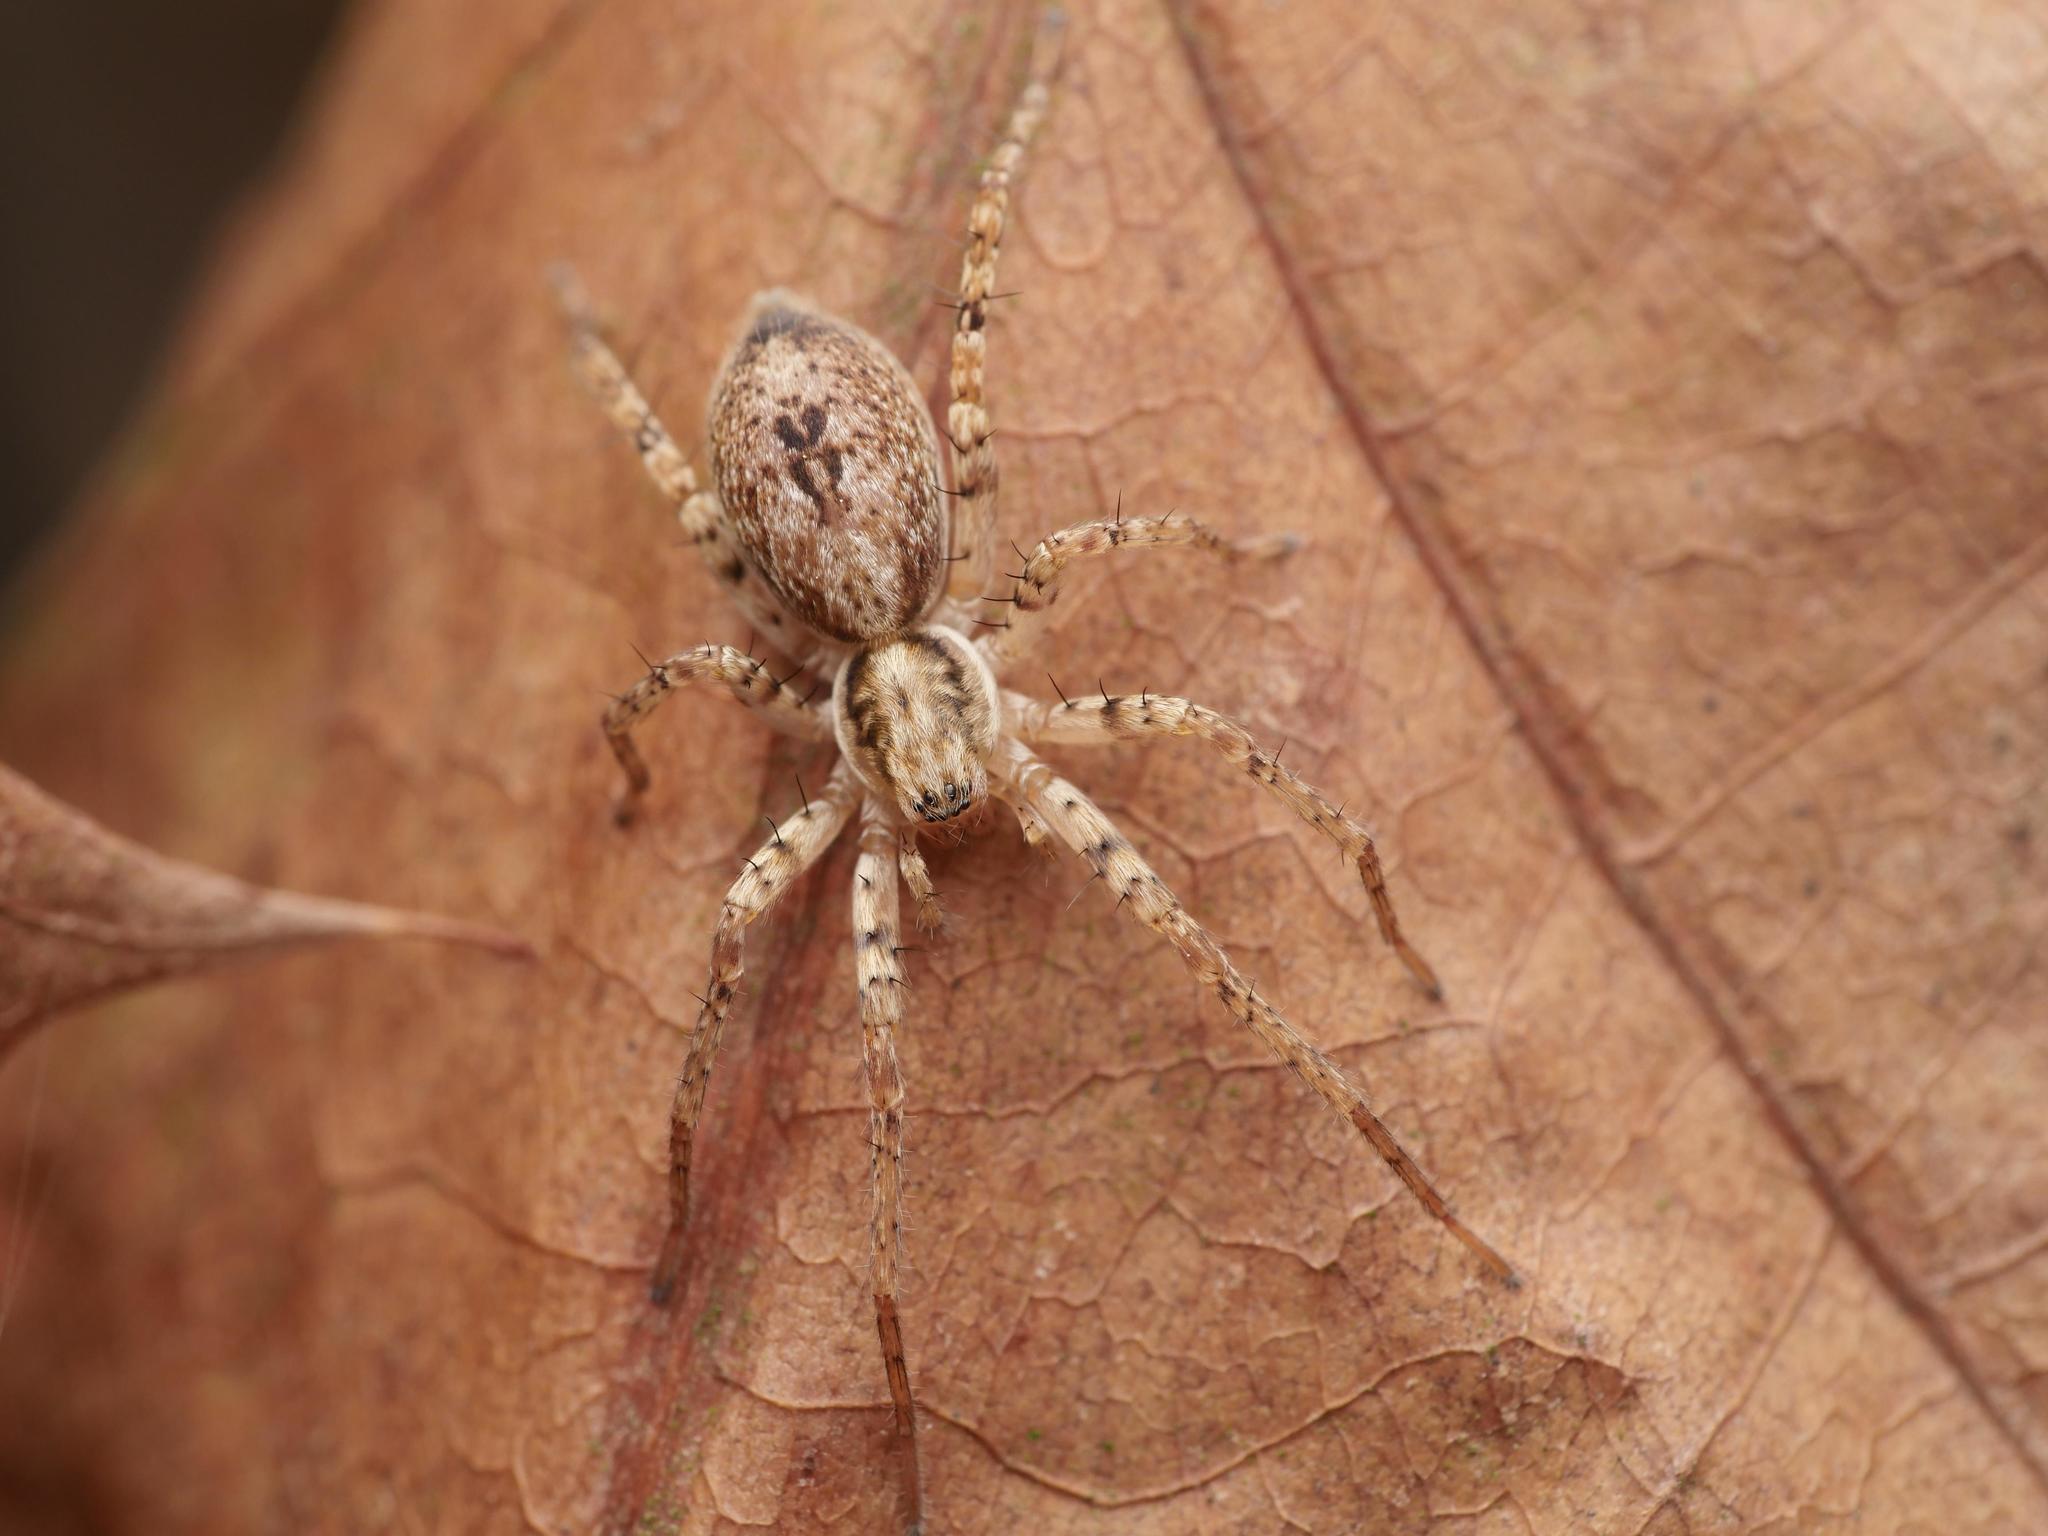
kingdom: Animalia
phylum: Arthropoda
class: Arachnida
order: Araneae
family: Anyphaenidae
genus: Anyphaena
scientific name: Anyphaena accentuata
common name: Buzzing spider
